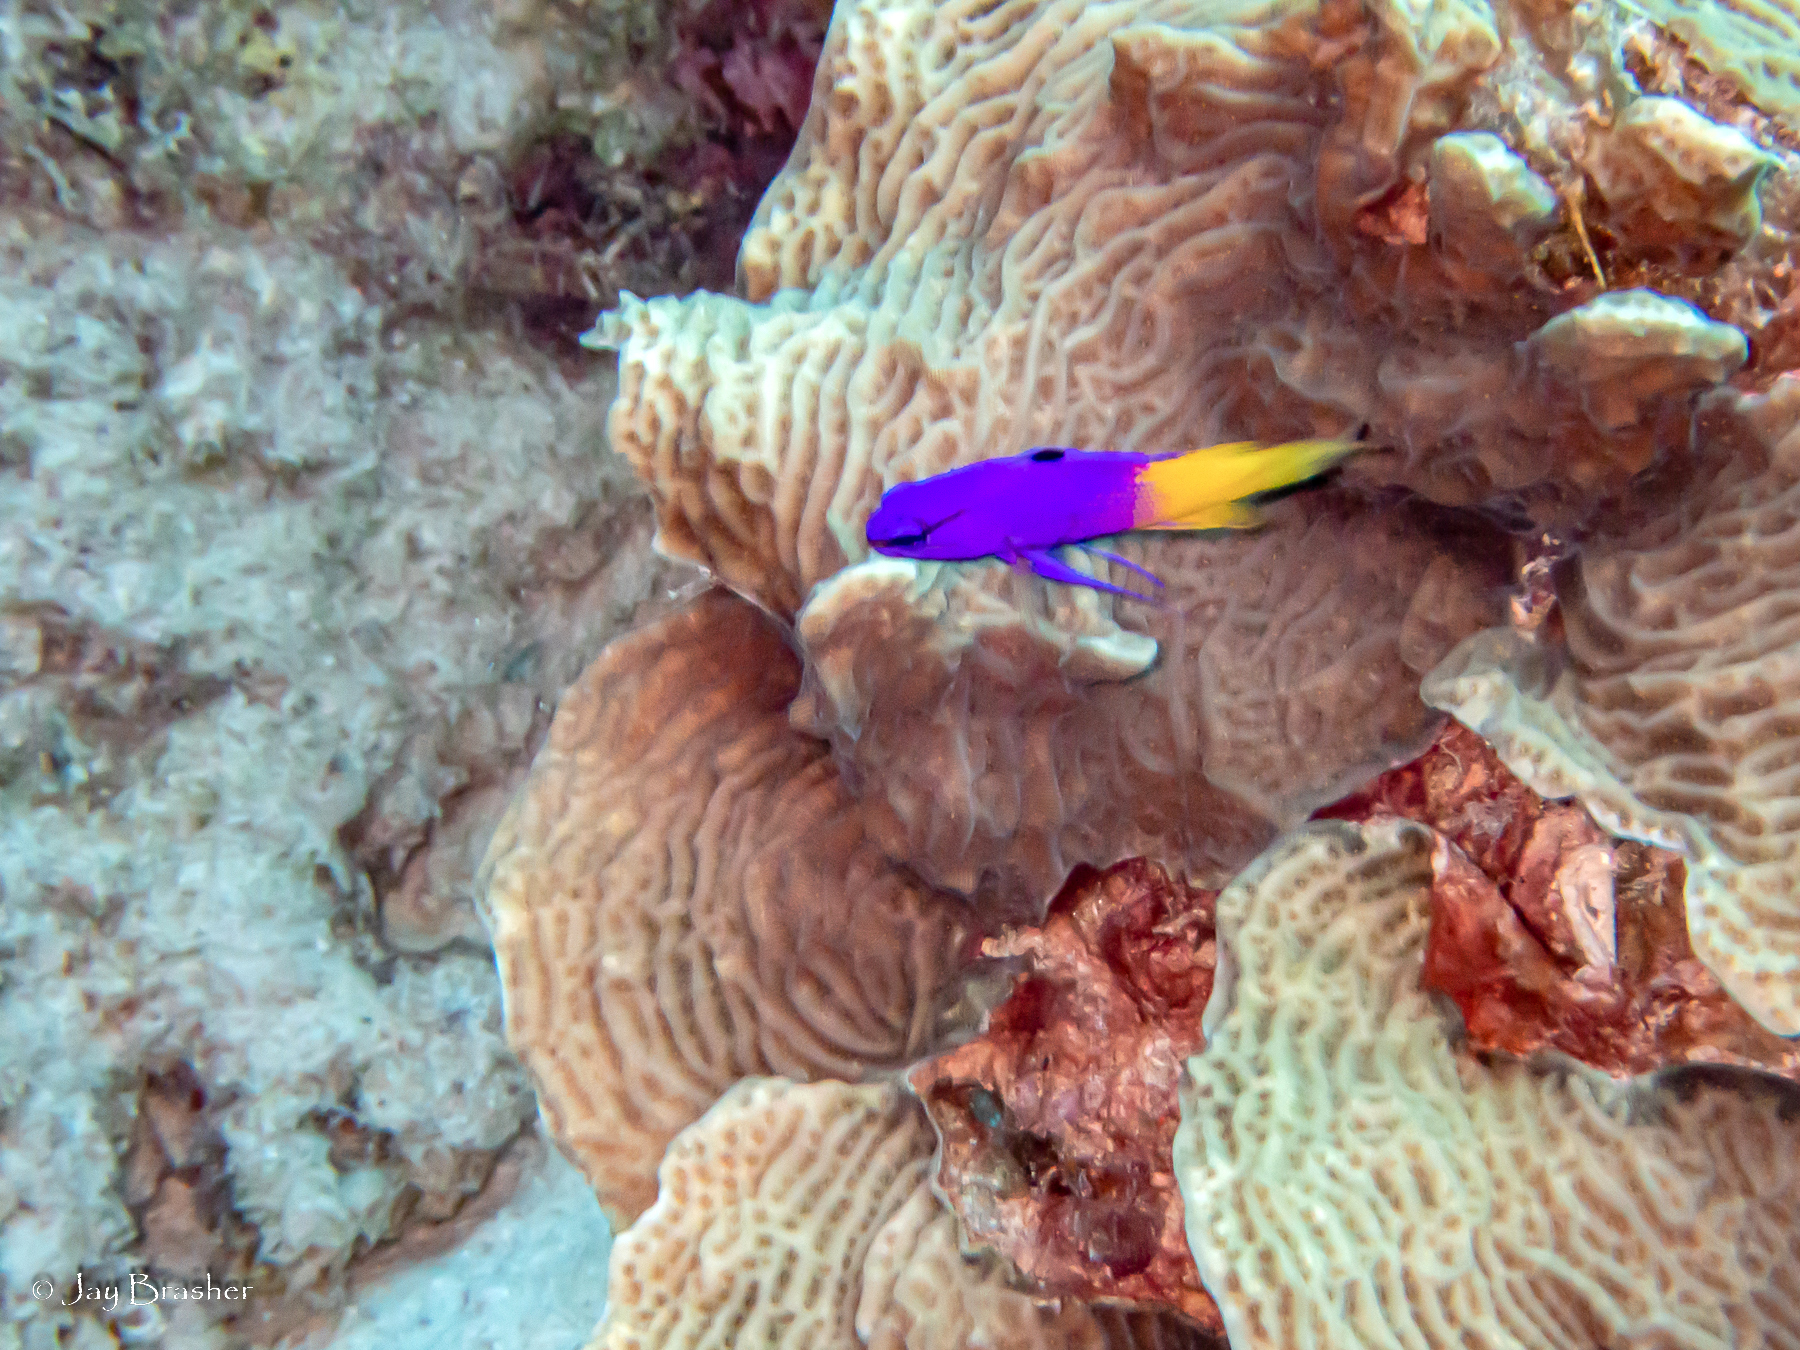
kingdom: Animalia
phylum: Cnidaria
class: Anthozoa
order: Scleractinia
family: Agariciidae
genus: Agaricia
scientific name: Agaricia agaricites
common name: Lettuce coral
